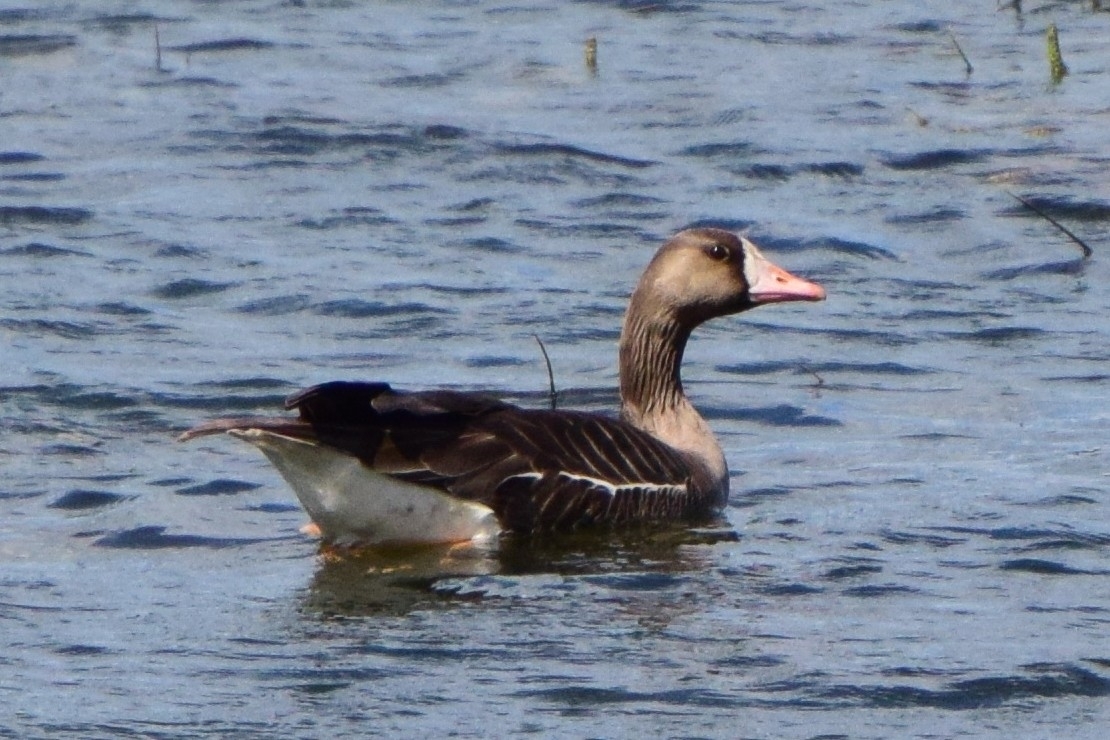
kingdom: Animalia
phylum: Chordata
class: Aves
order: Anseriformes
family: Anatidae
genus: Anser
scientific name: Anser albifrons
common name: Greater white-fronted goose
